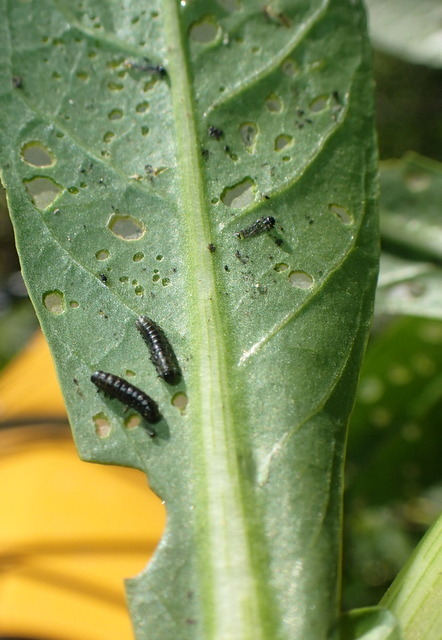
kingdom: Animalia
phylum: Arthropoda
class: Insecta
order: Coleoptera
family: Chrysomelidae
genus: Agasicles
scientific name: Agasicles hygrophila
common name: Alligatorweed flea beetle
